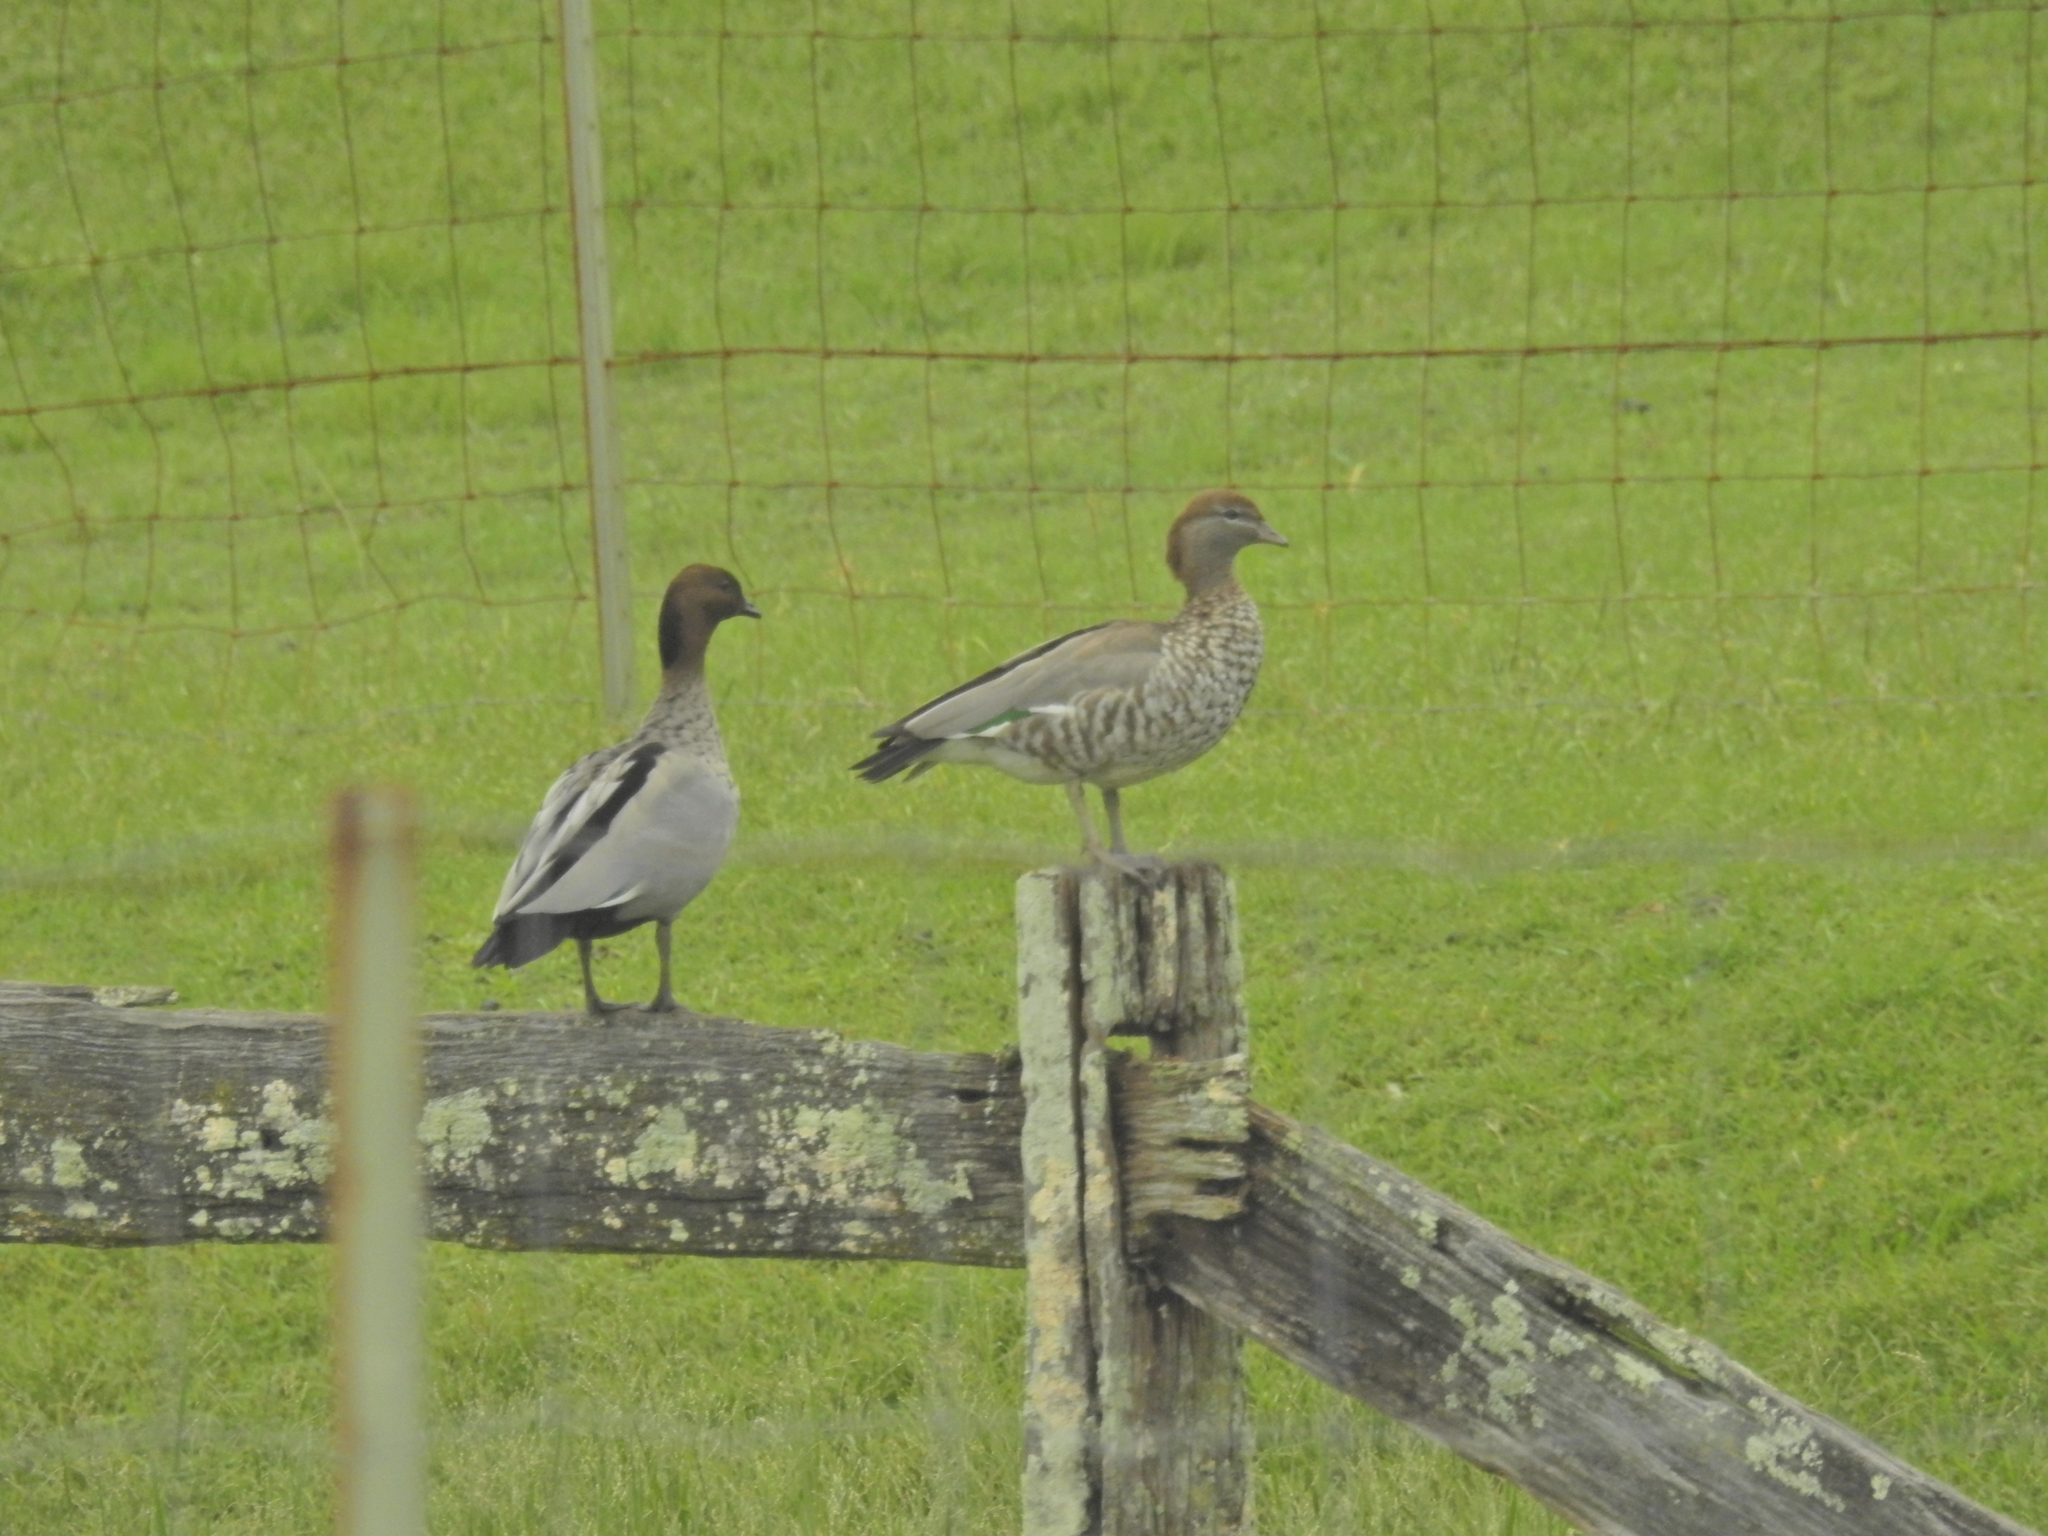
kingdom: Animalia
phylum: Chordata
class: Aves
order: Anseriformes
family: Anatidae
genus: Chenonetta
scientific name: Chenonetta jubata
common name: Maned duck
